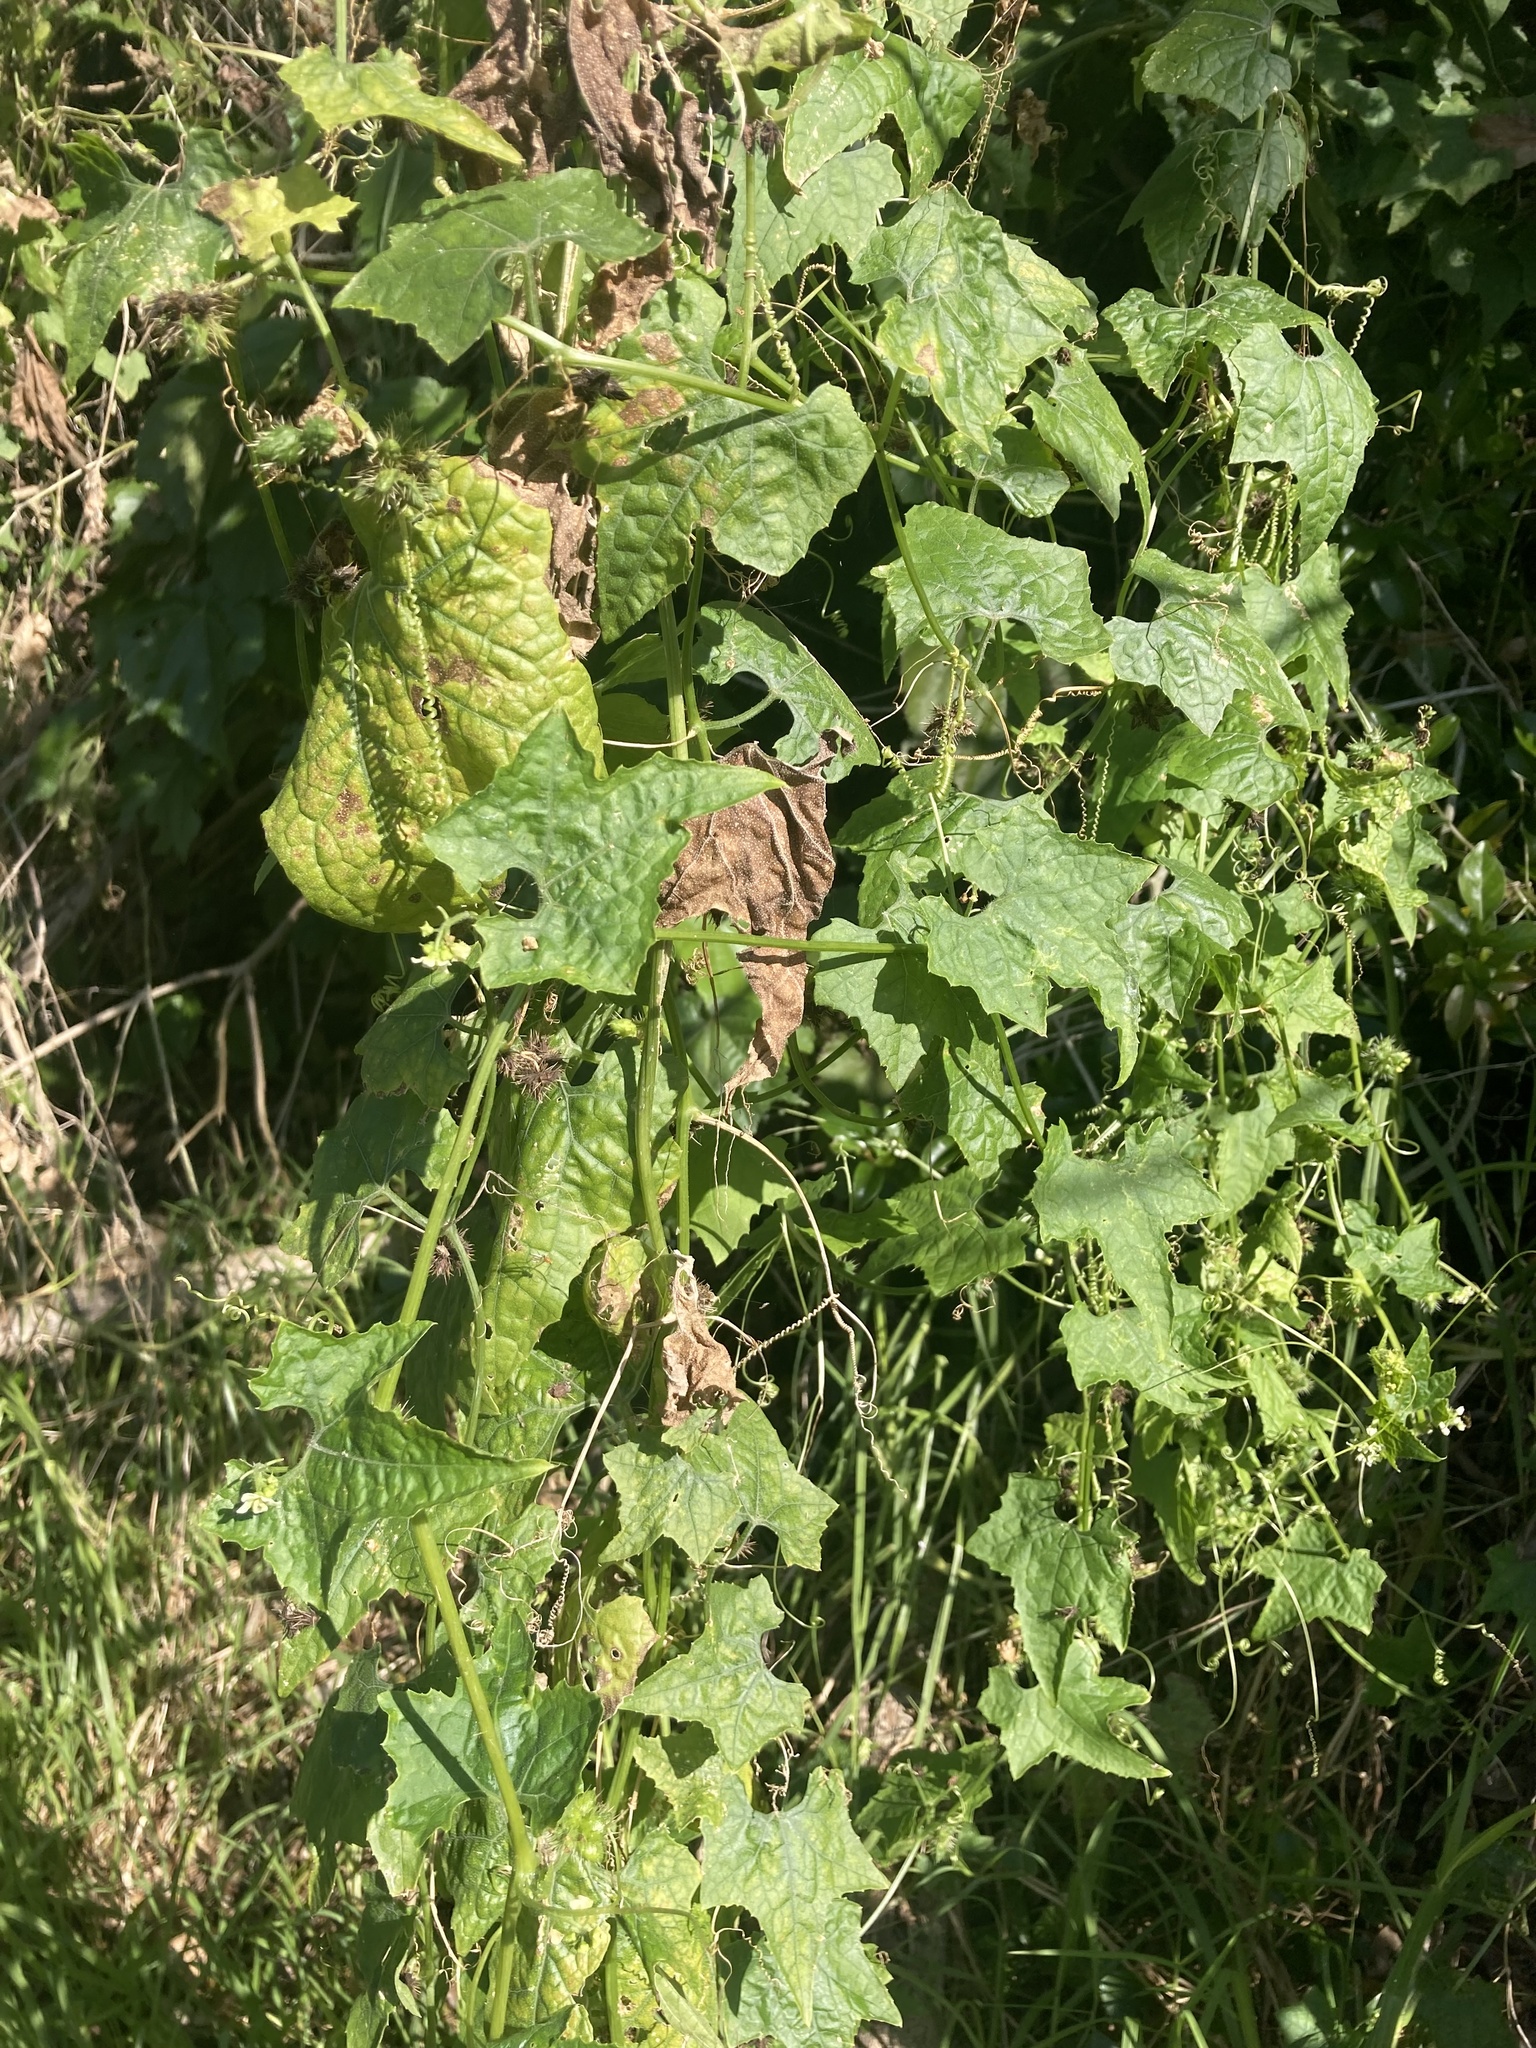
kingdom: Plantae
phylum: Tracheophyta
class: Magnoliopsida
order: Cucurbitales
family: Cucurbitaceae
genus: Sicyos
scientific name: Sicyos australis
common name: Angle-cucumber
